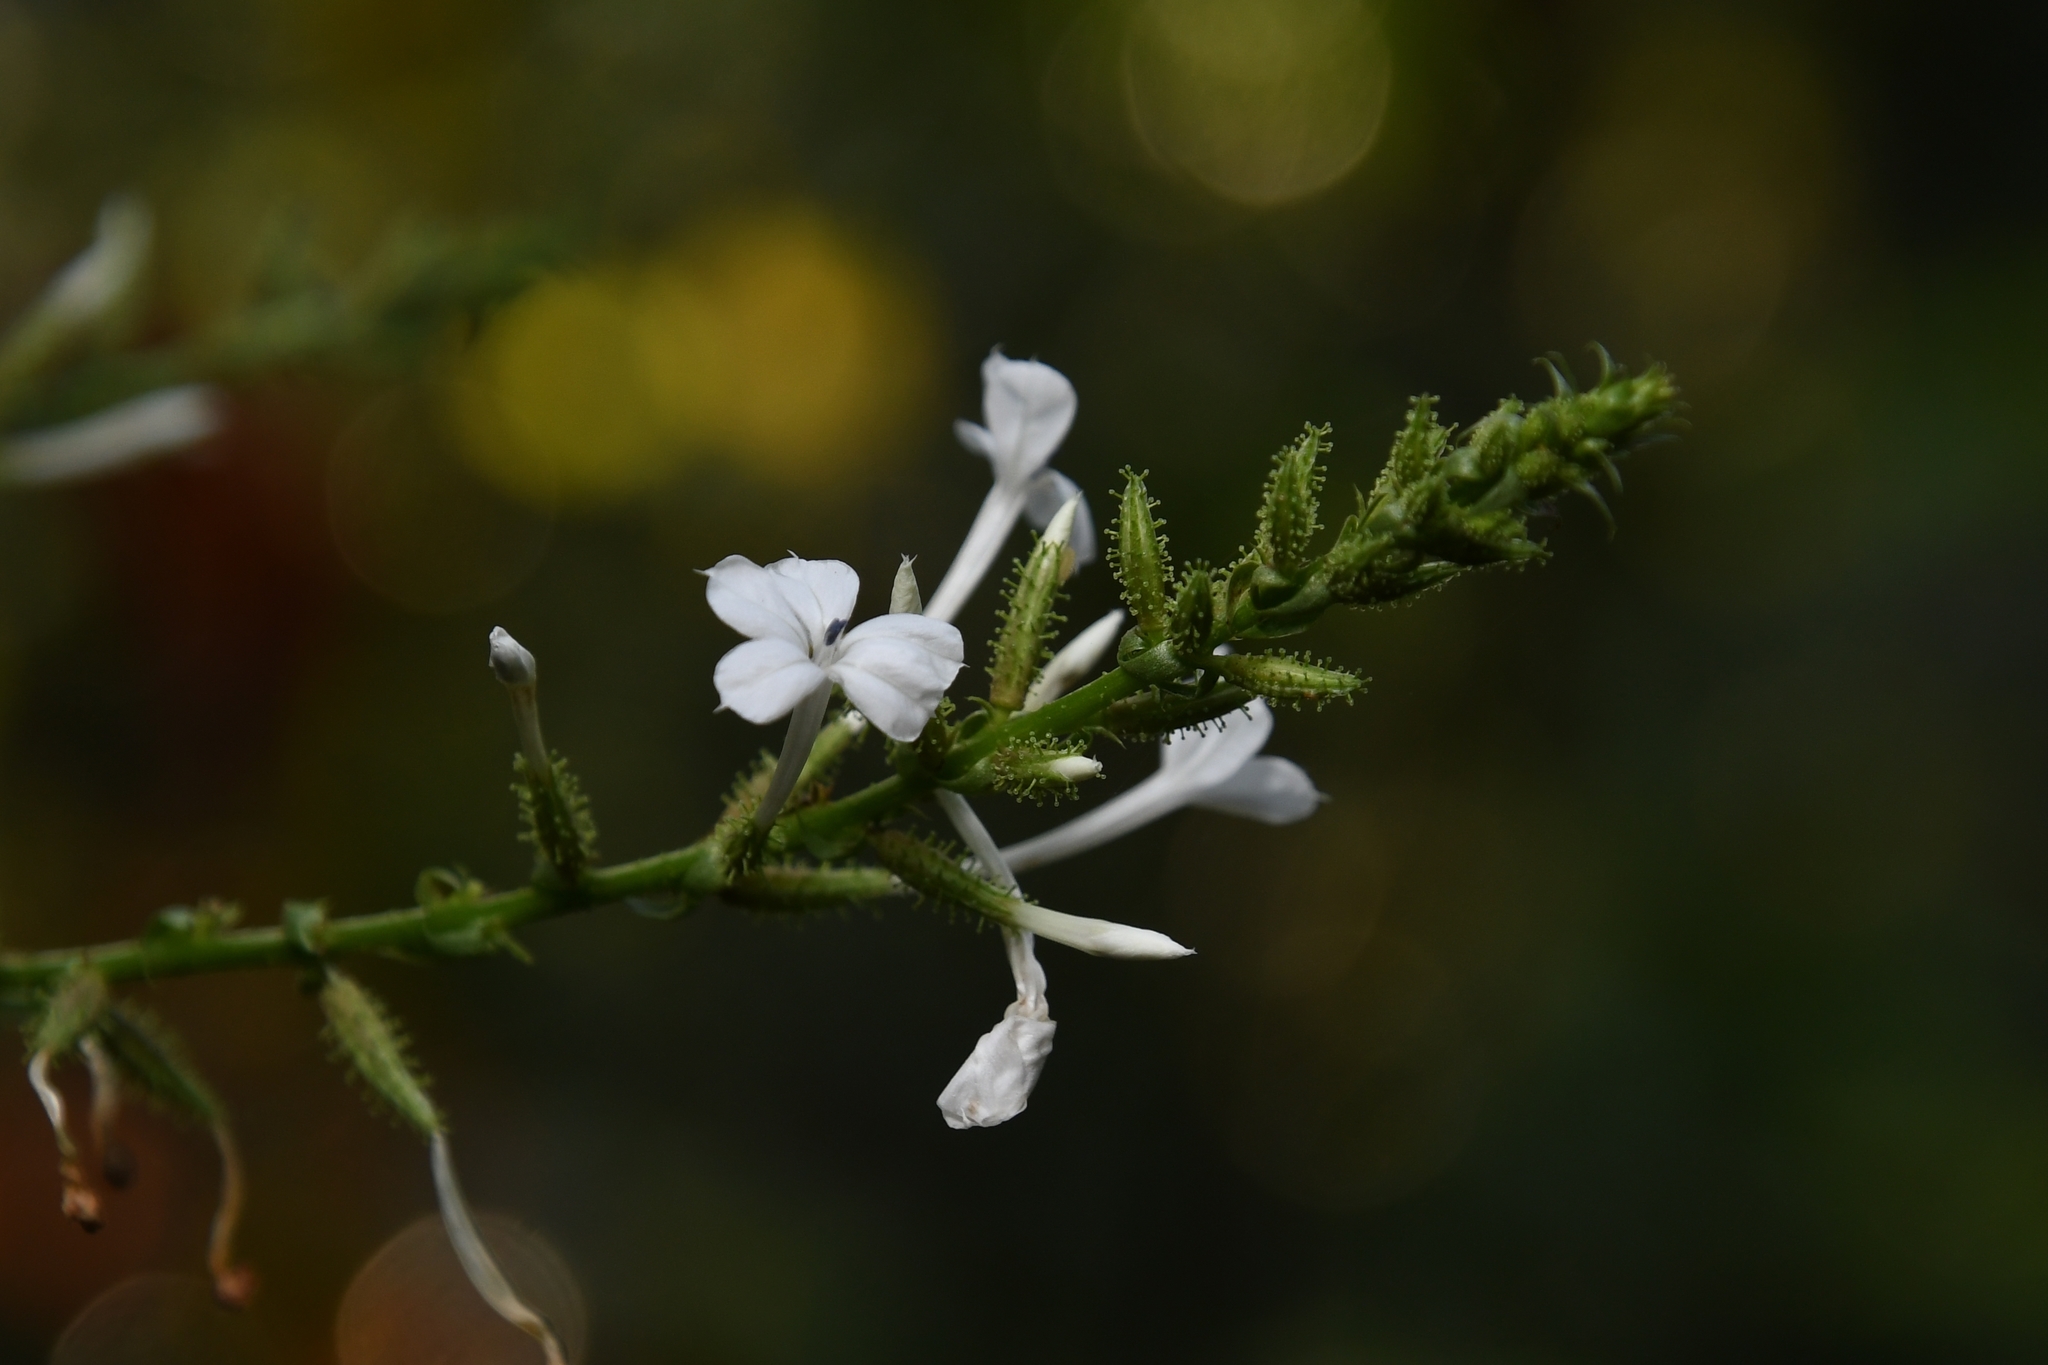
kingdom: Plantae
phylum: Tracheophyta
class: Magnoliopsida
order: Caryophyllales
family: Plumbaginaceae
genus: Plumbago
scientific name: Plumbago zeylanica
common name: Doctorbush
